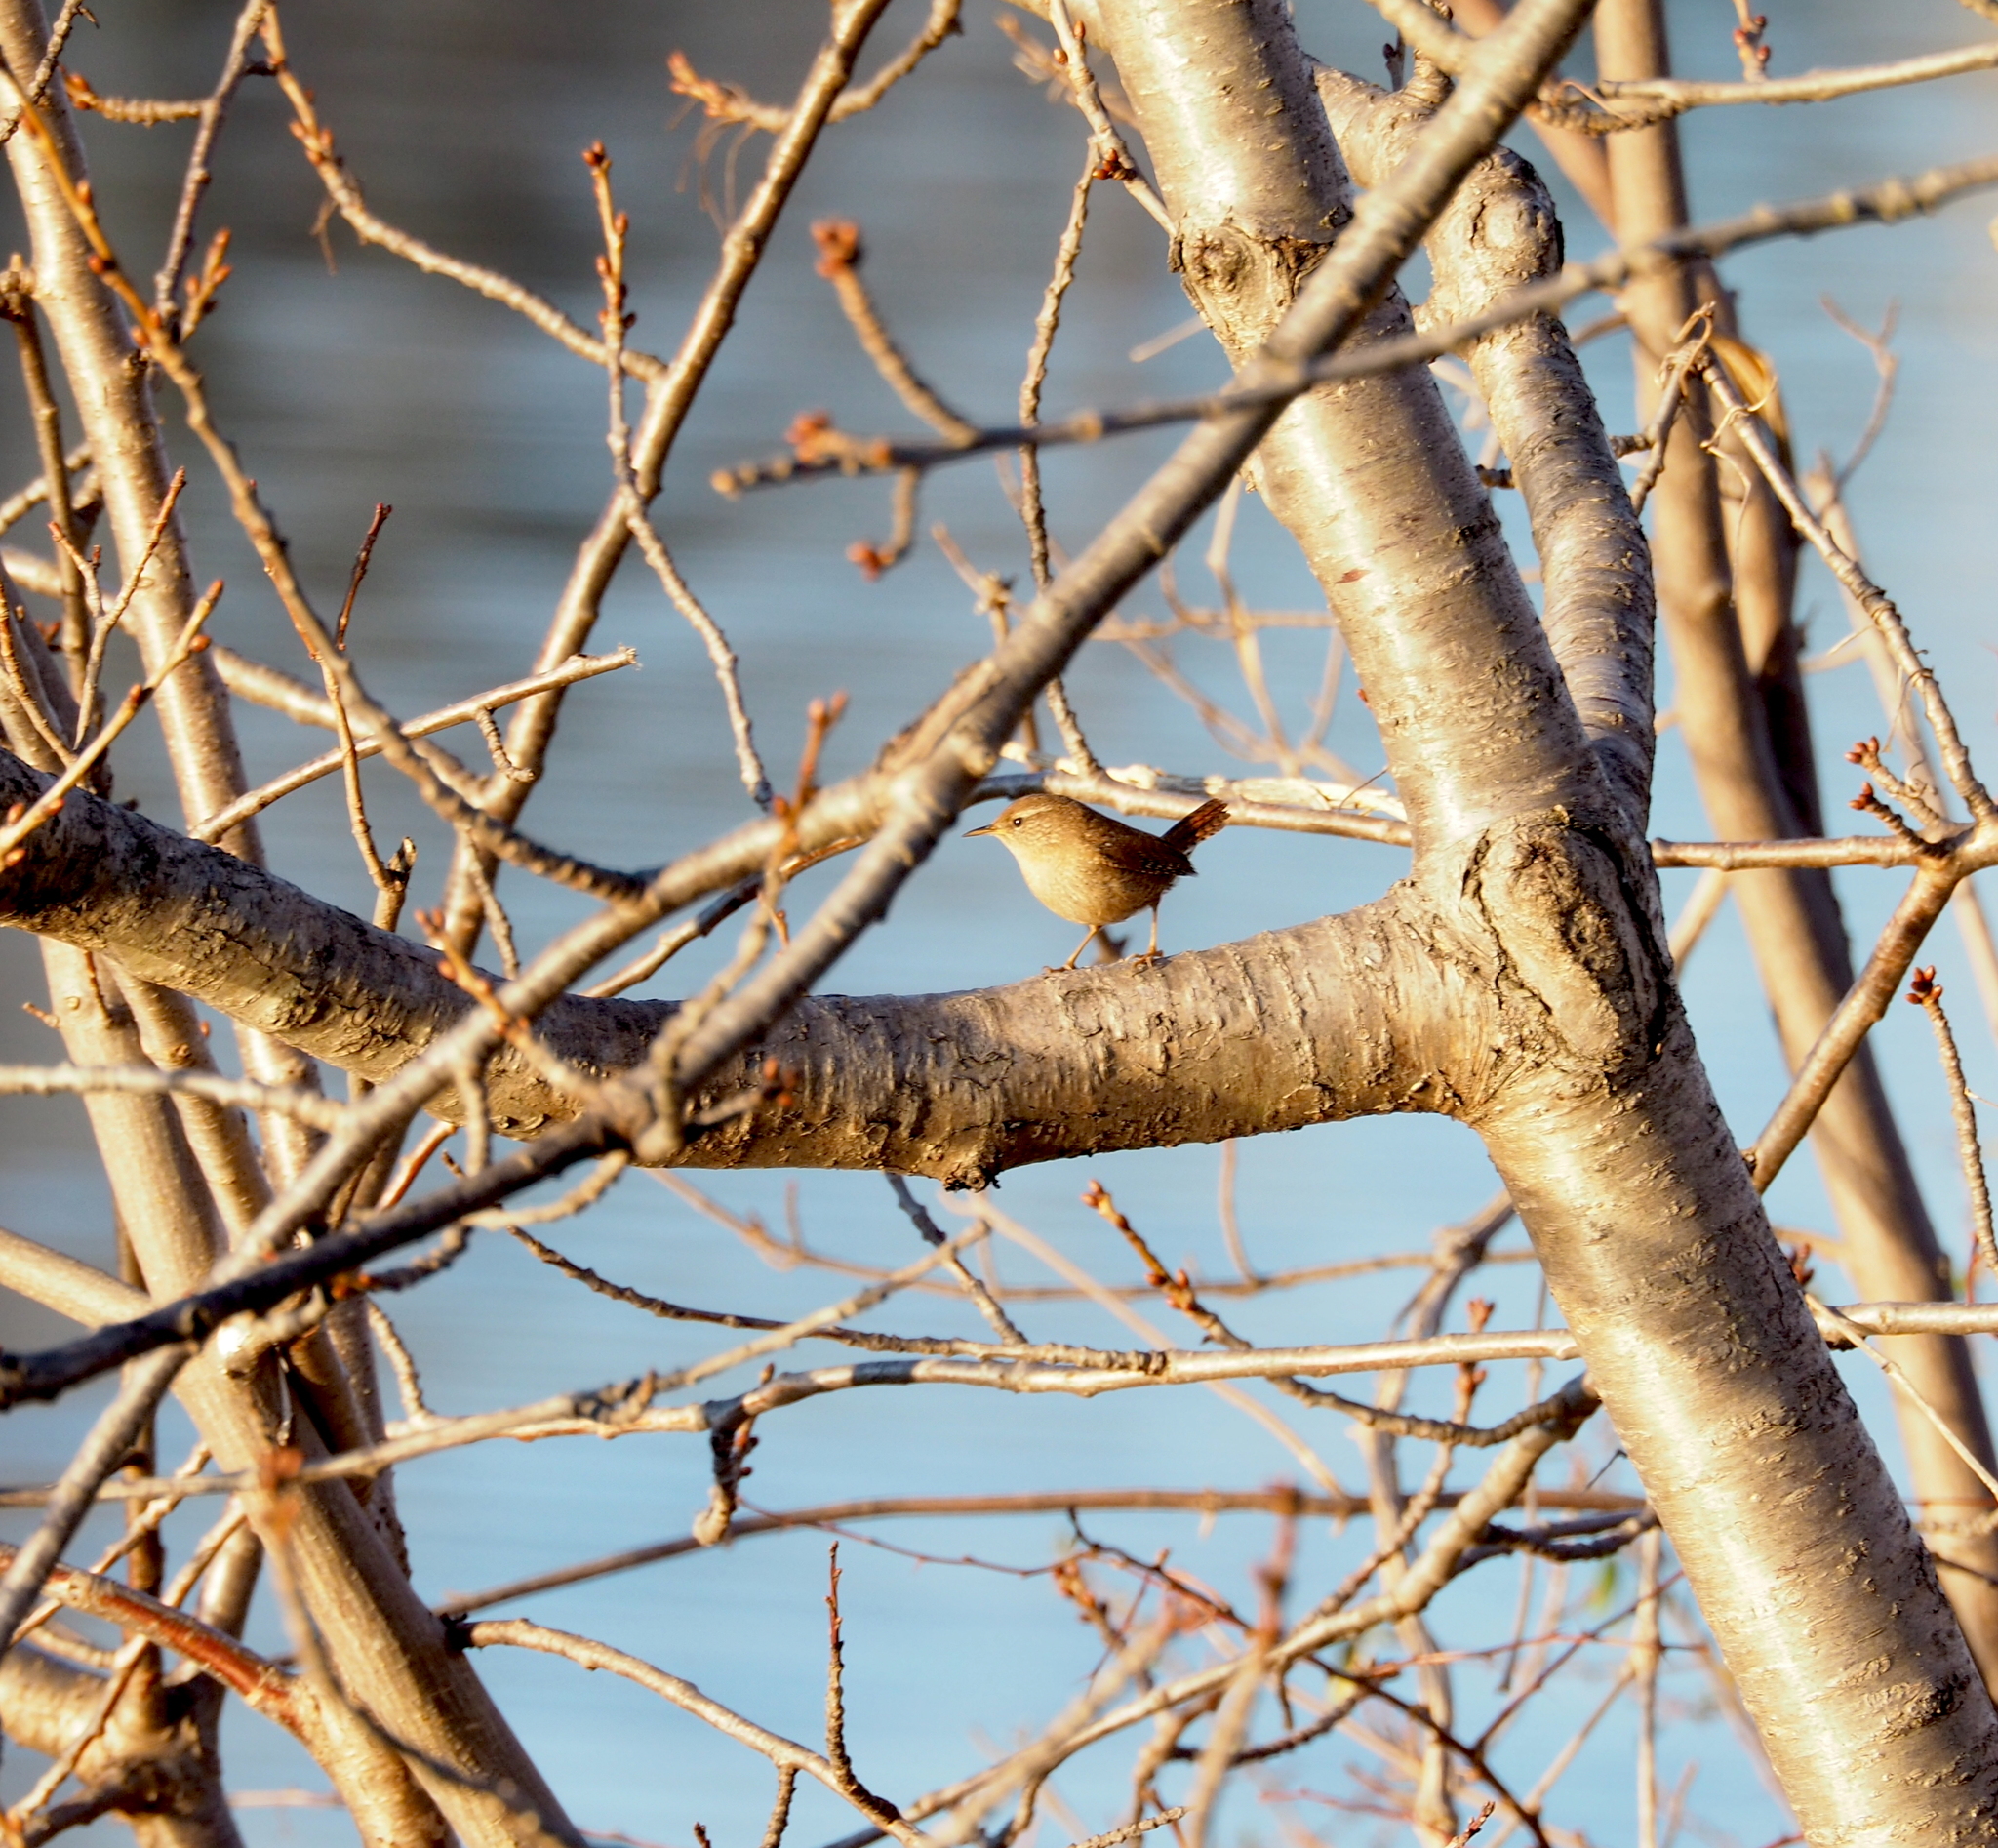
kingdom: Animalia
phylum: Chordata
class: Aves
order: Passeriformes
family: Troglodytidae
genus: Troglodytes
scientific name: Troglodytes troglodytes
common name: Eurasian wren
